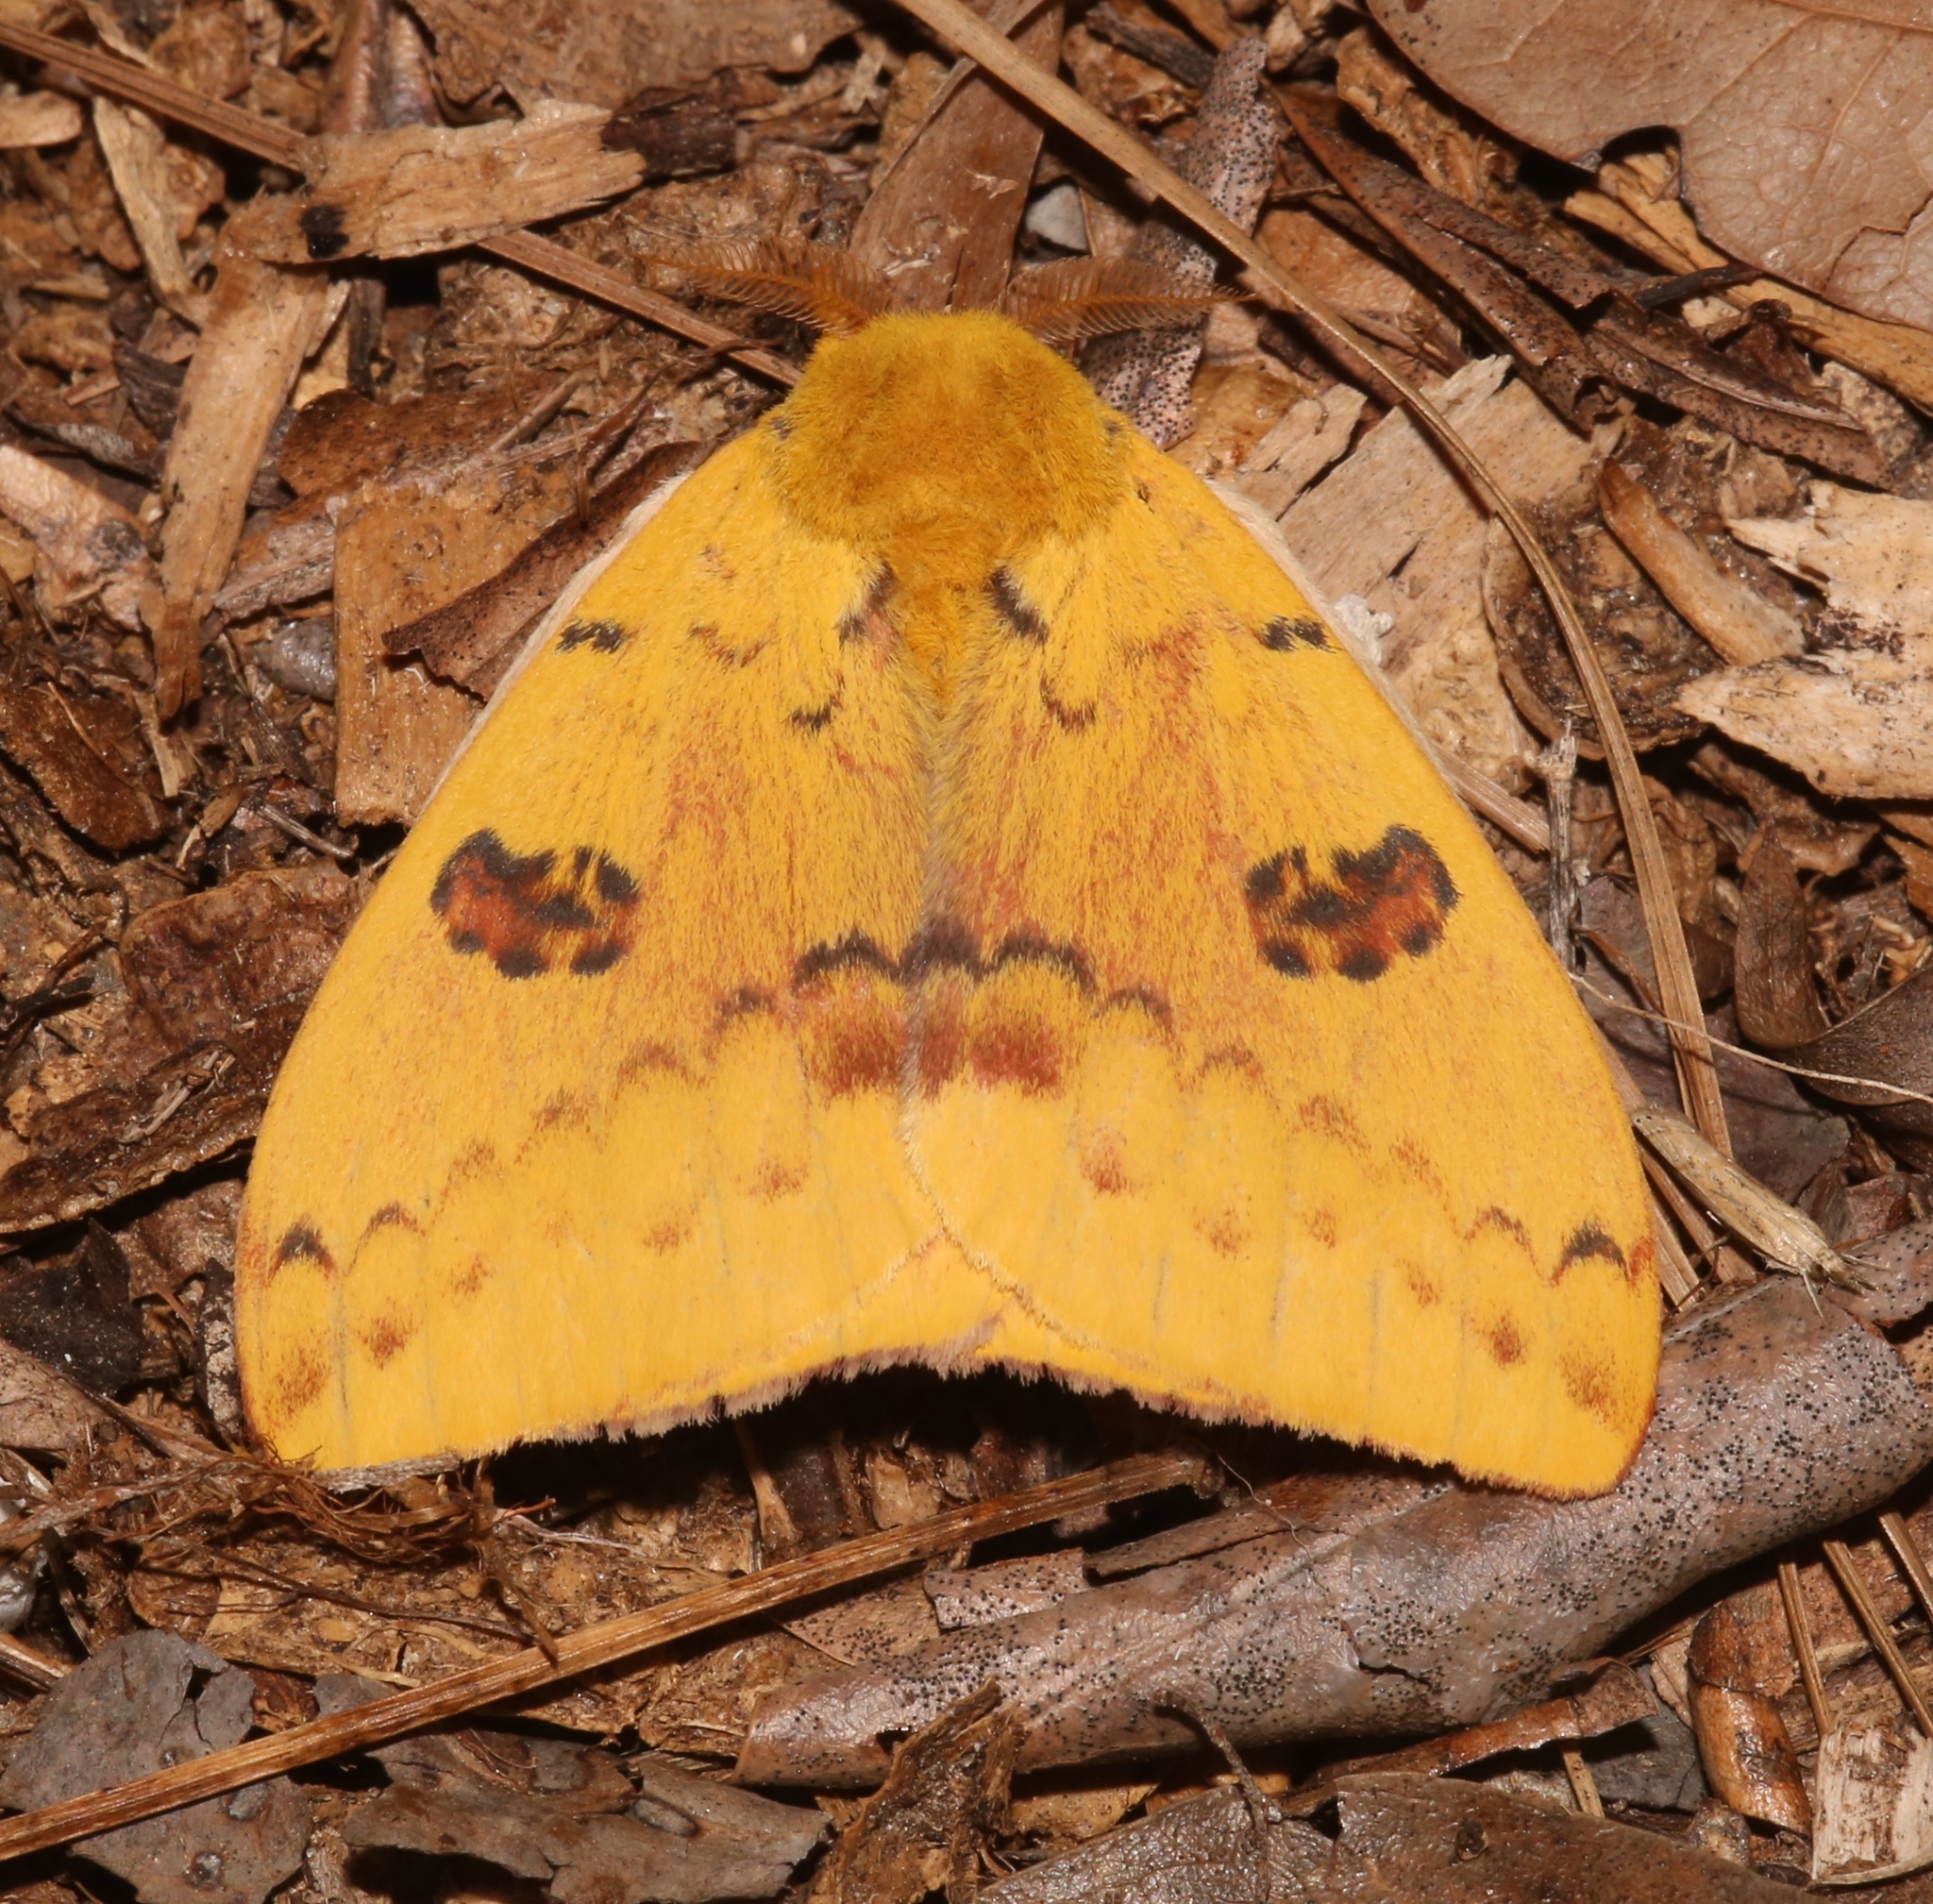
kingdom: Animalia
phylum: Arthropoda
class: Insecta
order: Lepidoptera
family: Saturniidae
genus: Automeris
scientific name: Automeris io
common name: Io moth
